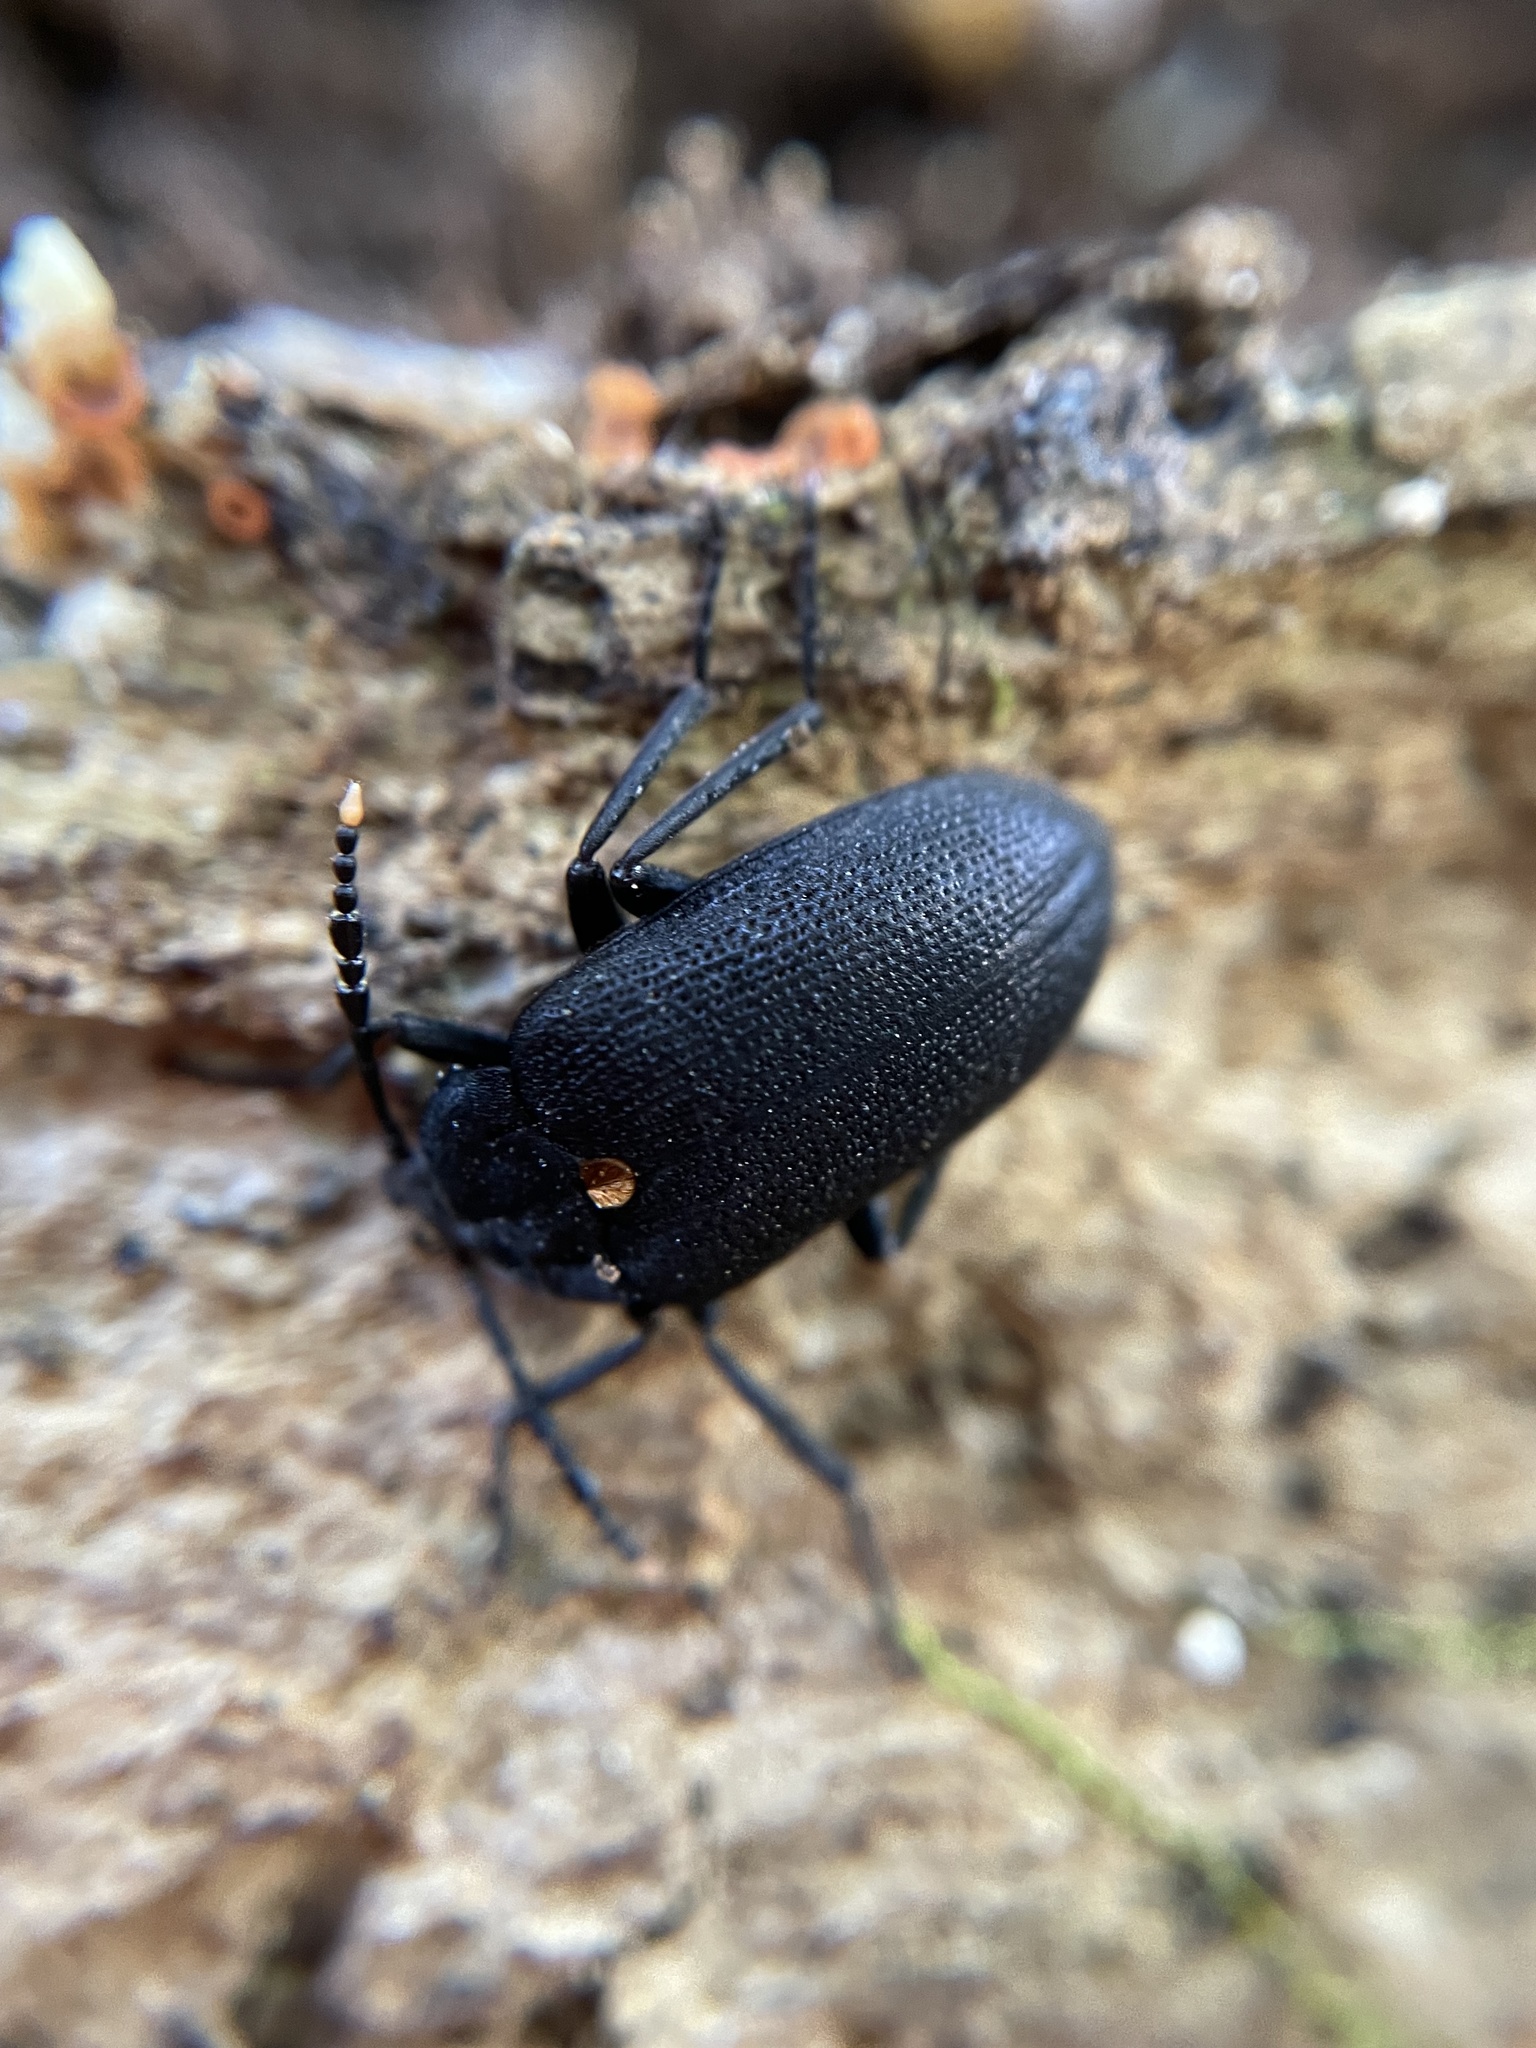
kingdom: Animalia
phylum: Arthropoda
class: Insecta
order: Coleoptera
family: Tetratomidae
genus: Penthe
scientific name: Penthe obliquata
